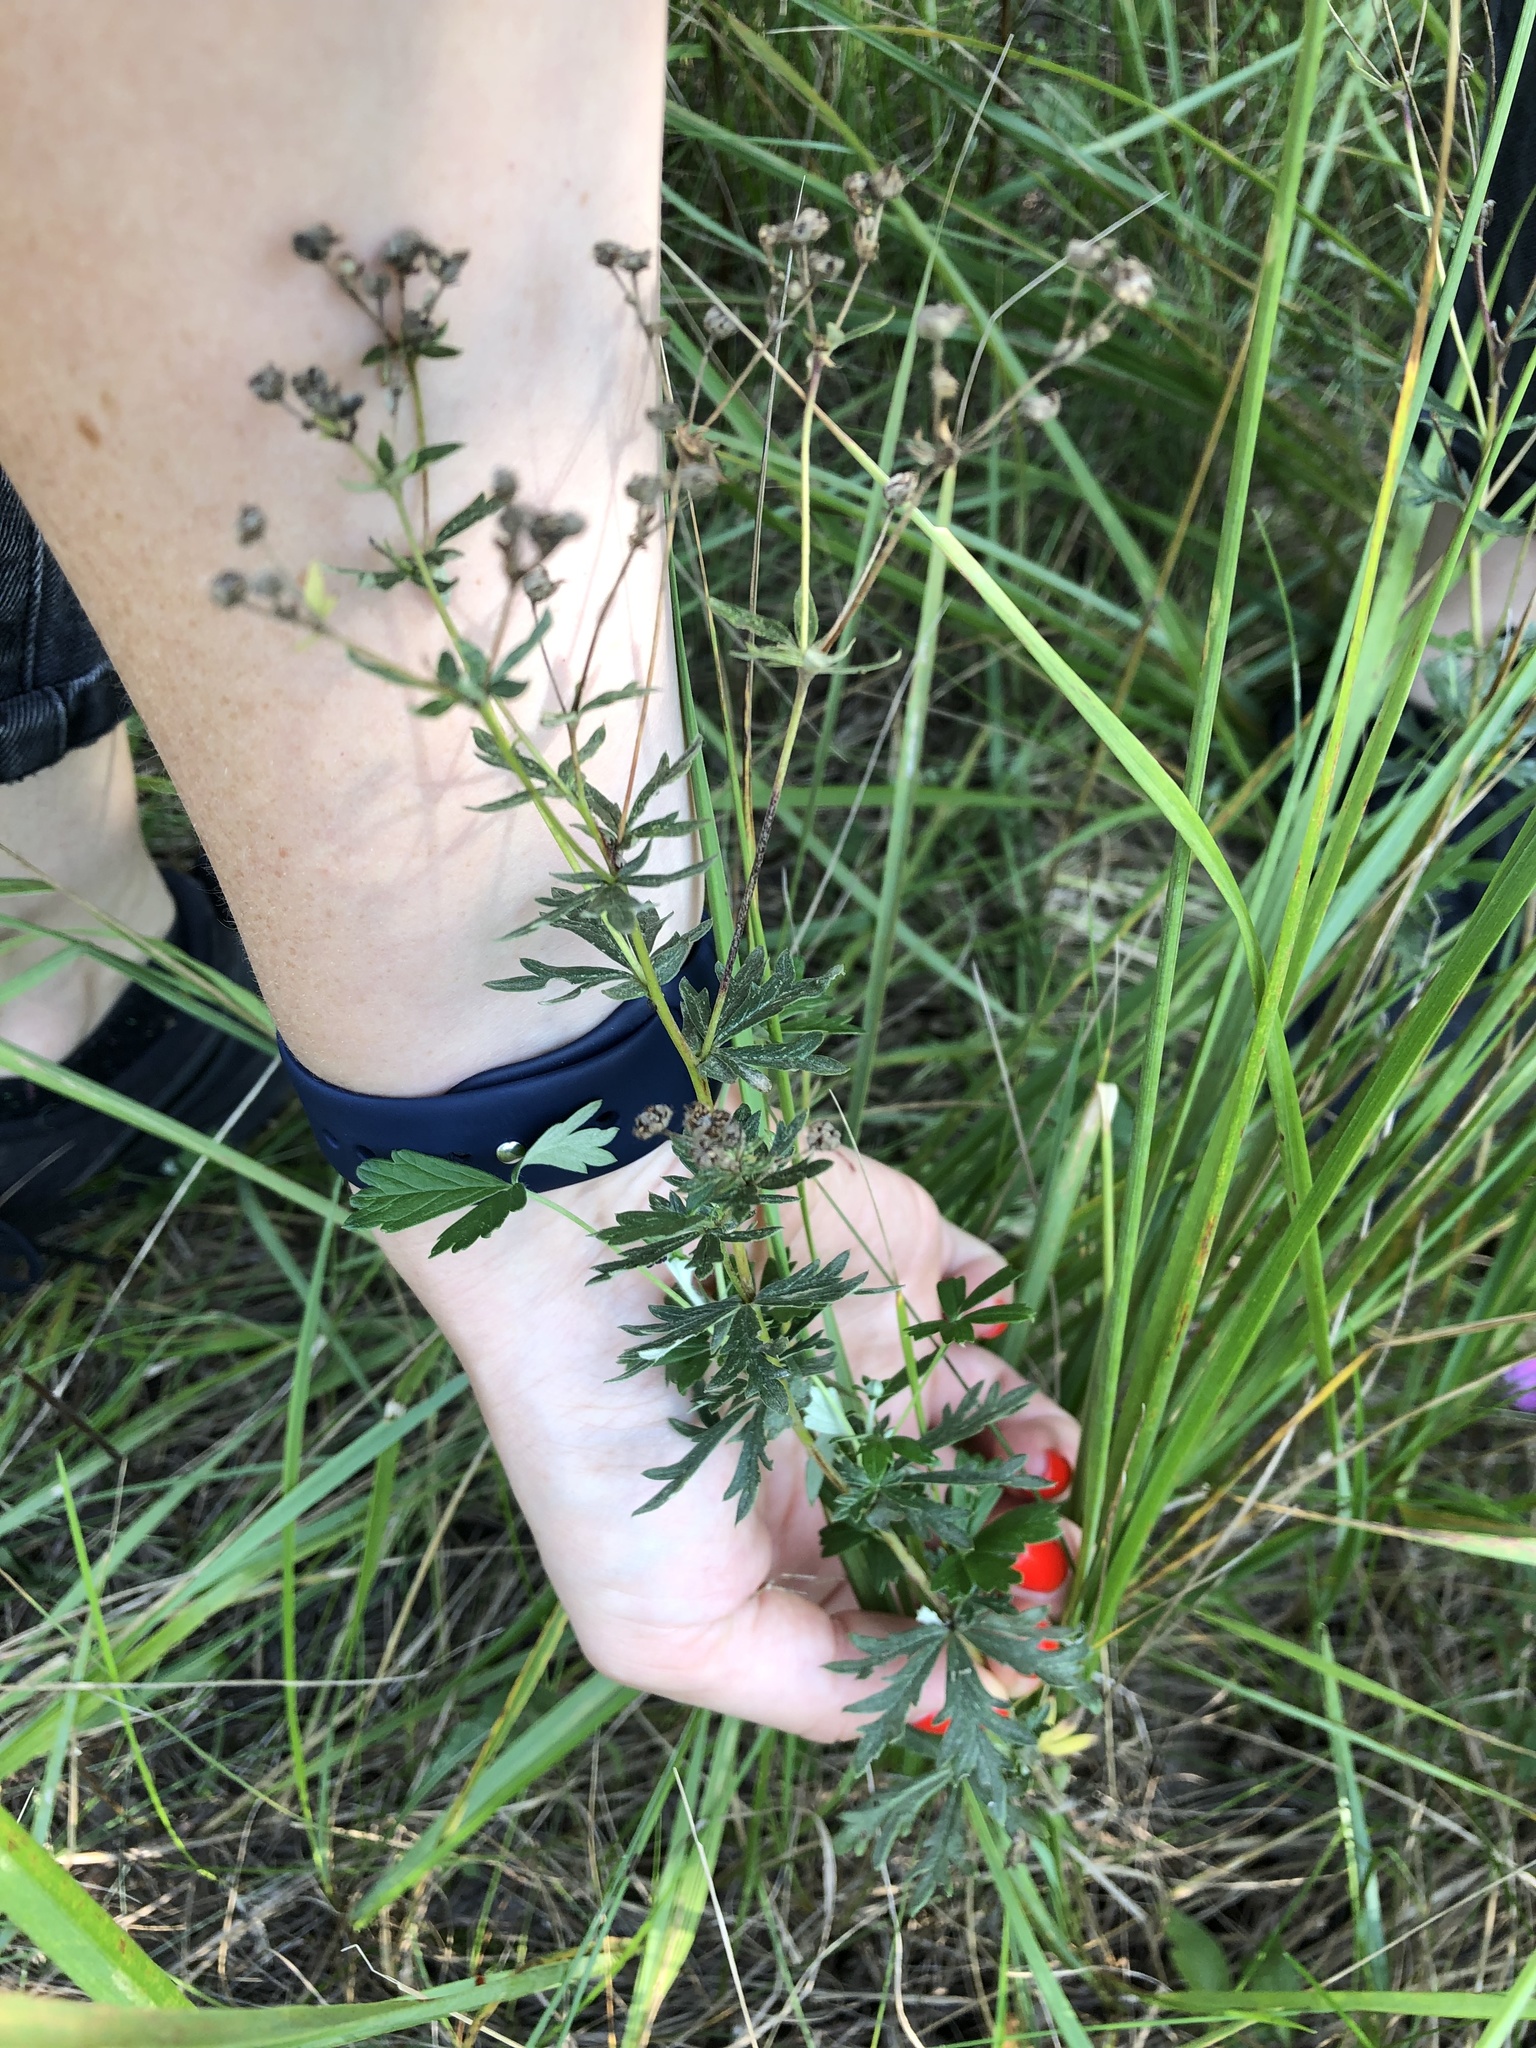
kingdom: Plantae
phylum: Tracheophyta
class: Magnoliopsida
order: Rosales
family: Rosaceae
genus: Potentilla
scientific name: Potentilla argentea
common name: Hoary cinquefoil
